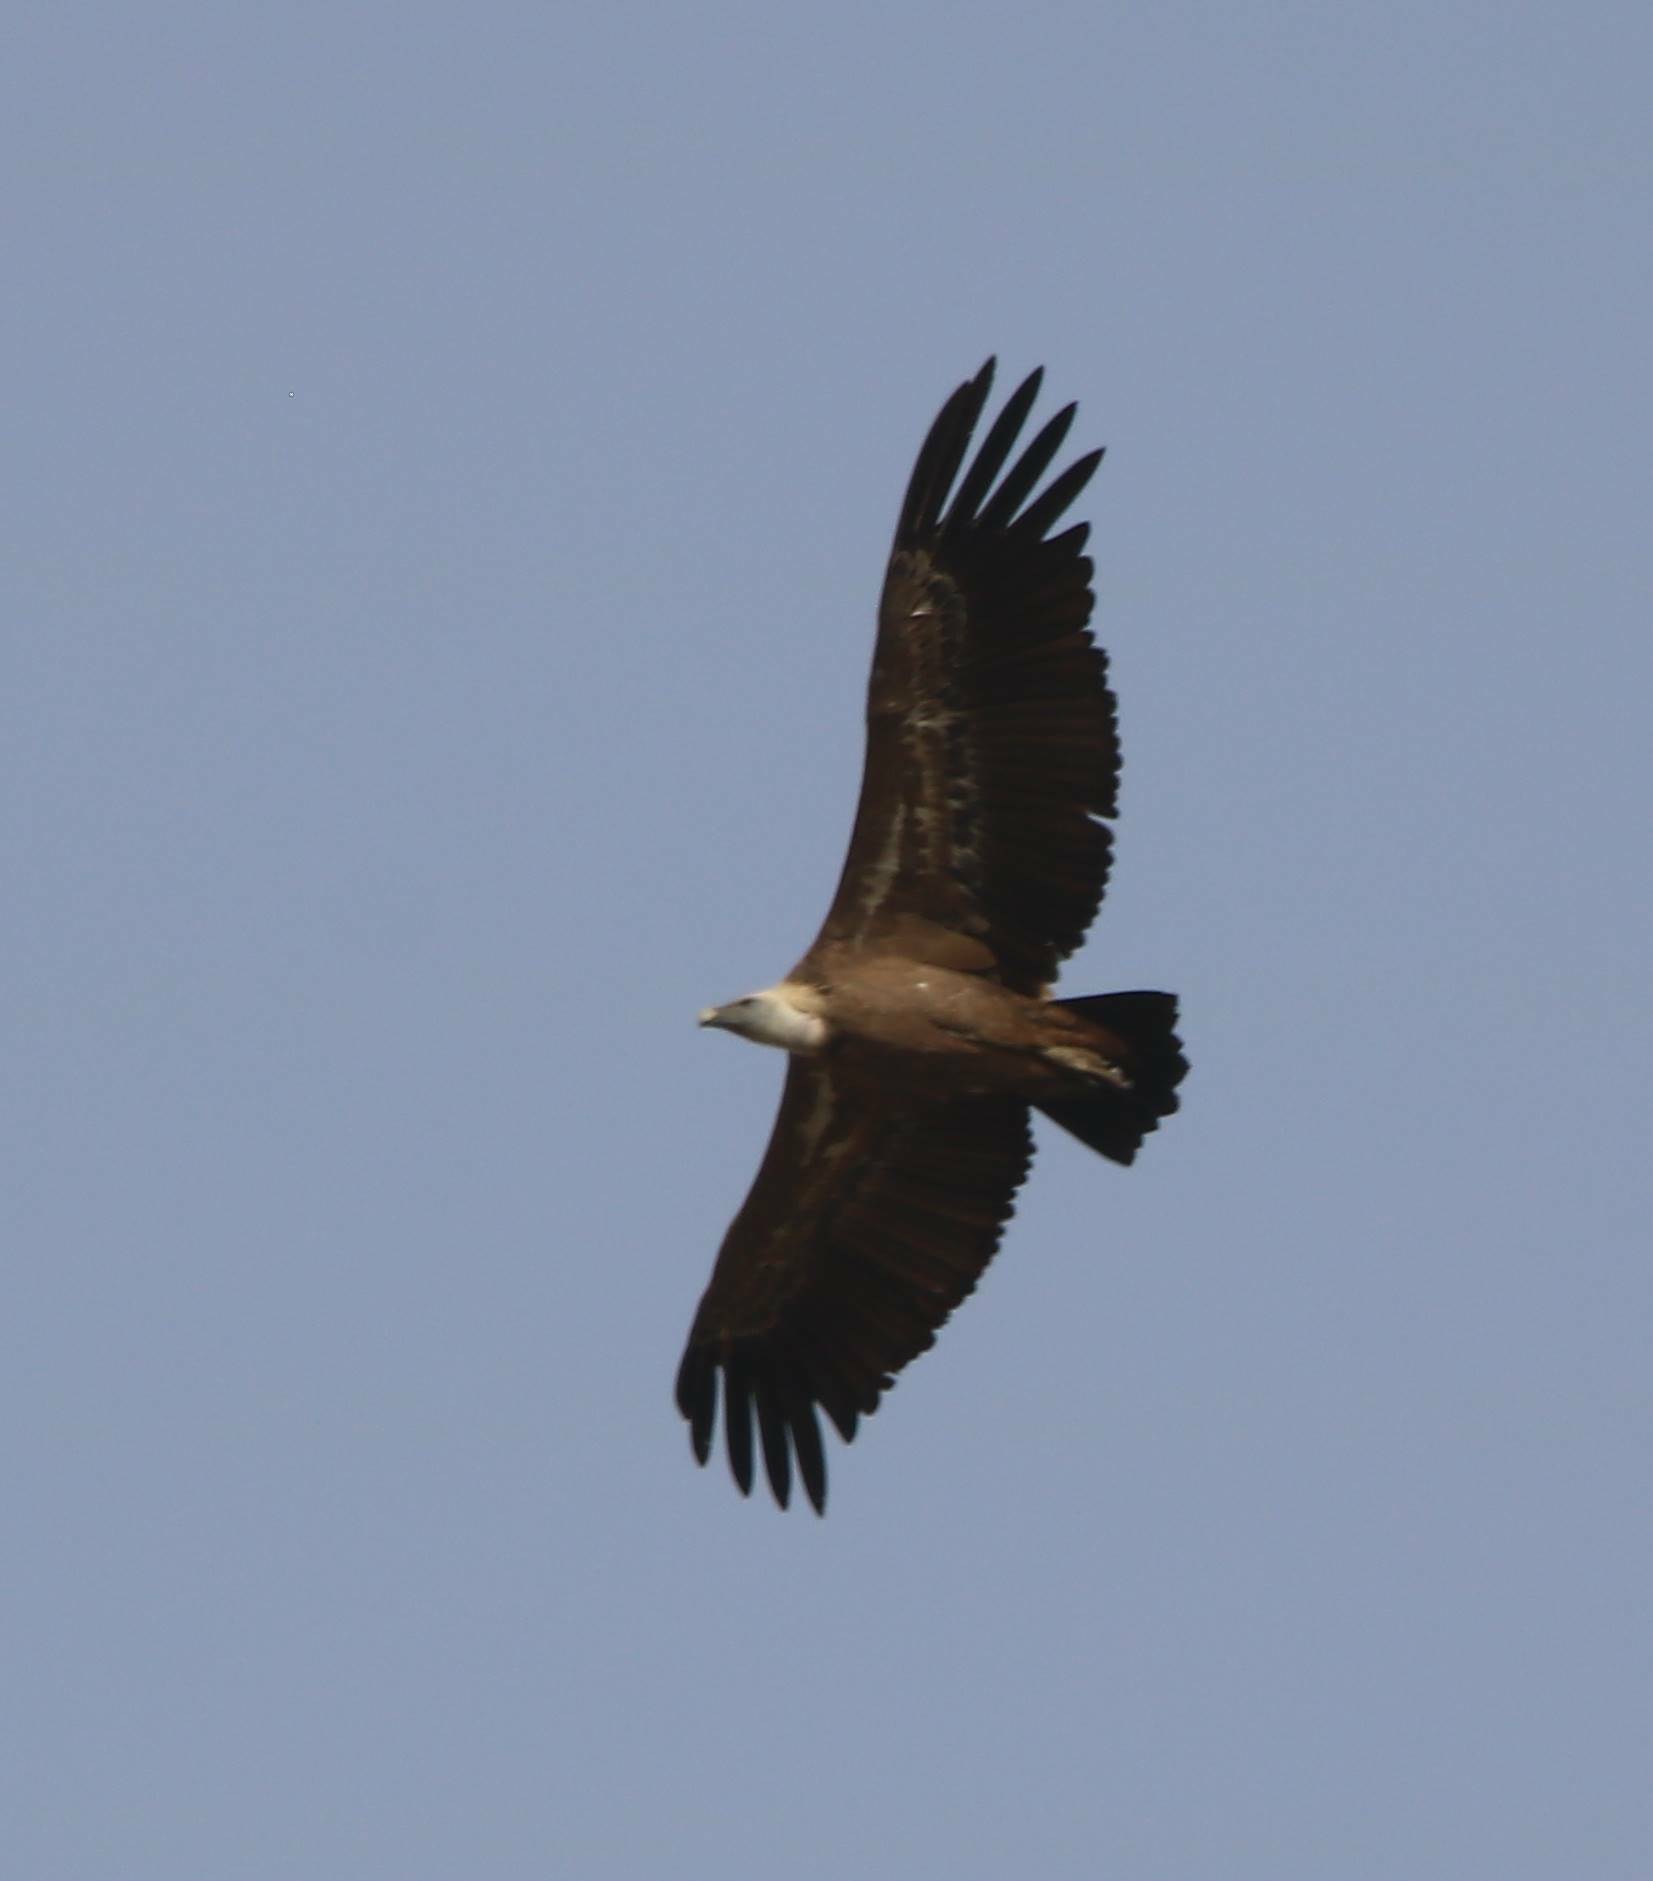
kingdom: Animalia
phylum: Chordata
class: Aves
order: Accipitriformes
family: Accipitridae
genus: Gyps
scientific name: Gyps fulvus
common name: Griffon vulture
